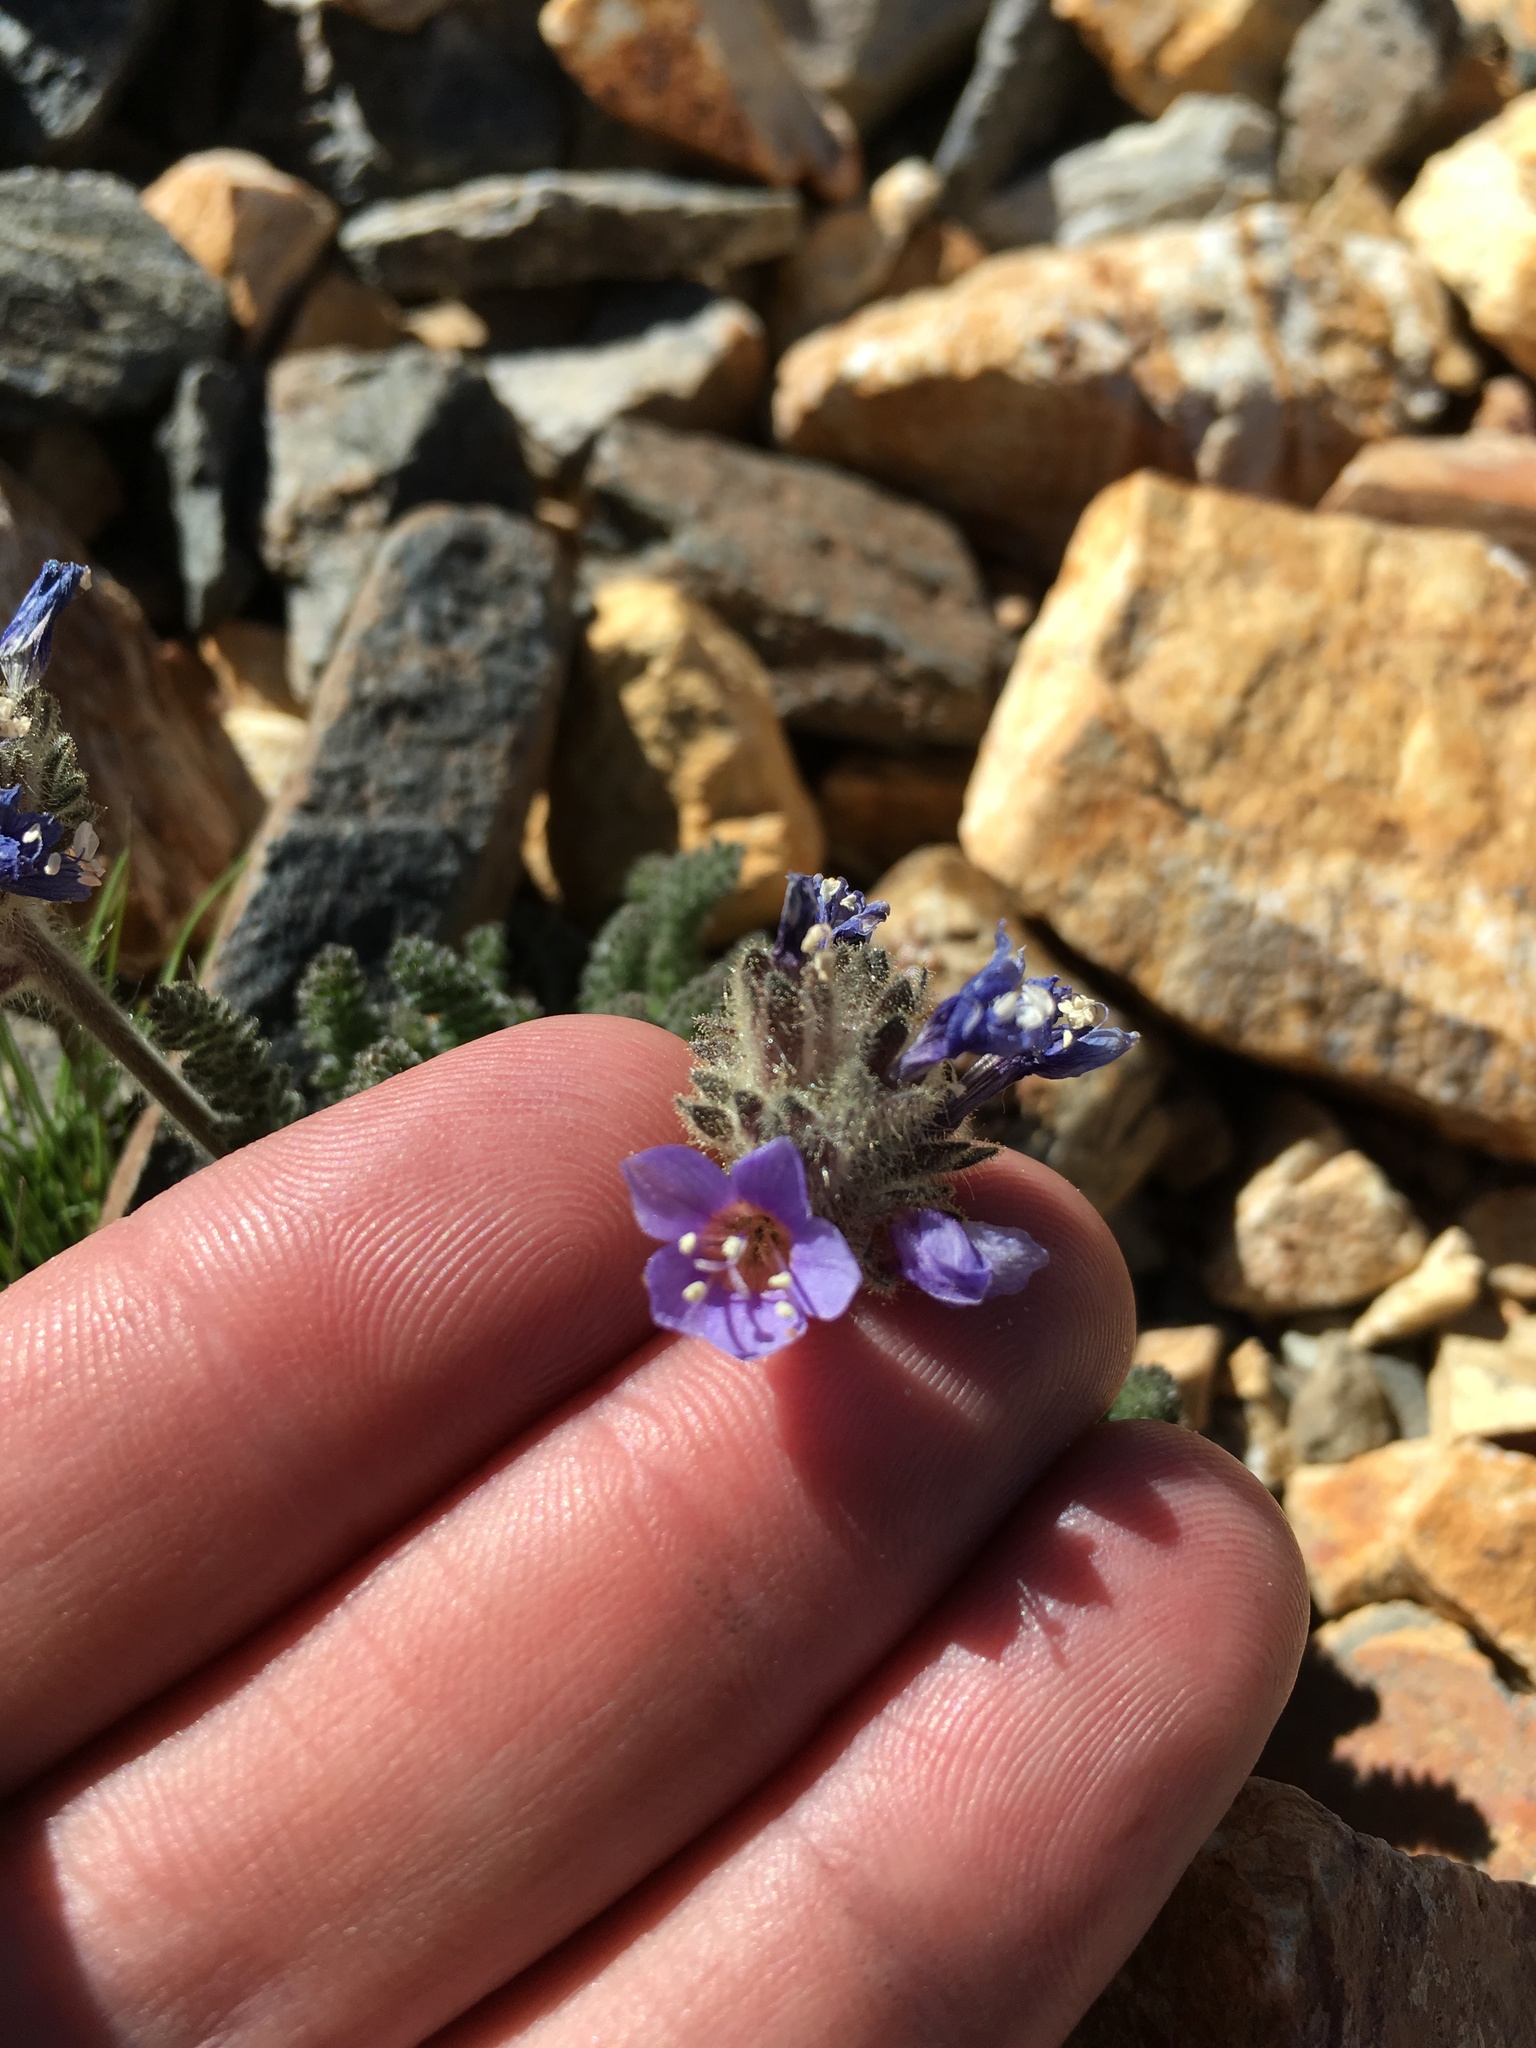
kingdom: Plantae
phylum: Tracheophyta
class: Magnoliopsida
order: Ericales
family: Polemoniaceae
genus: Polemonium
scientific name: Polemonium chartaceum
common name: Mason's sky-pilot
